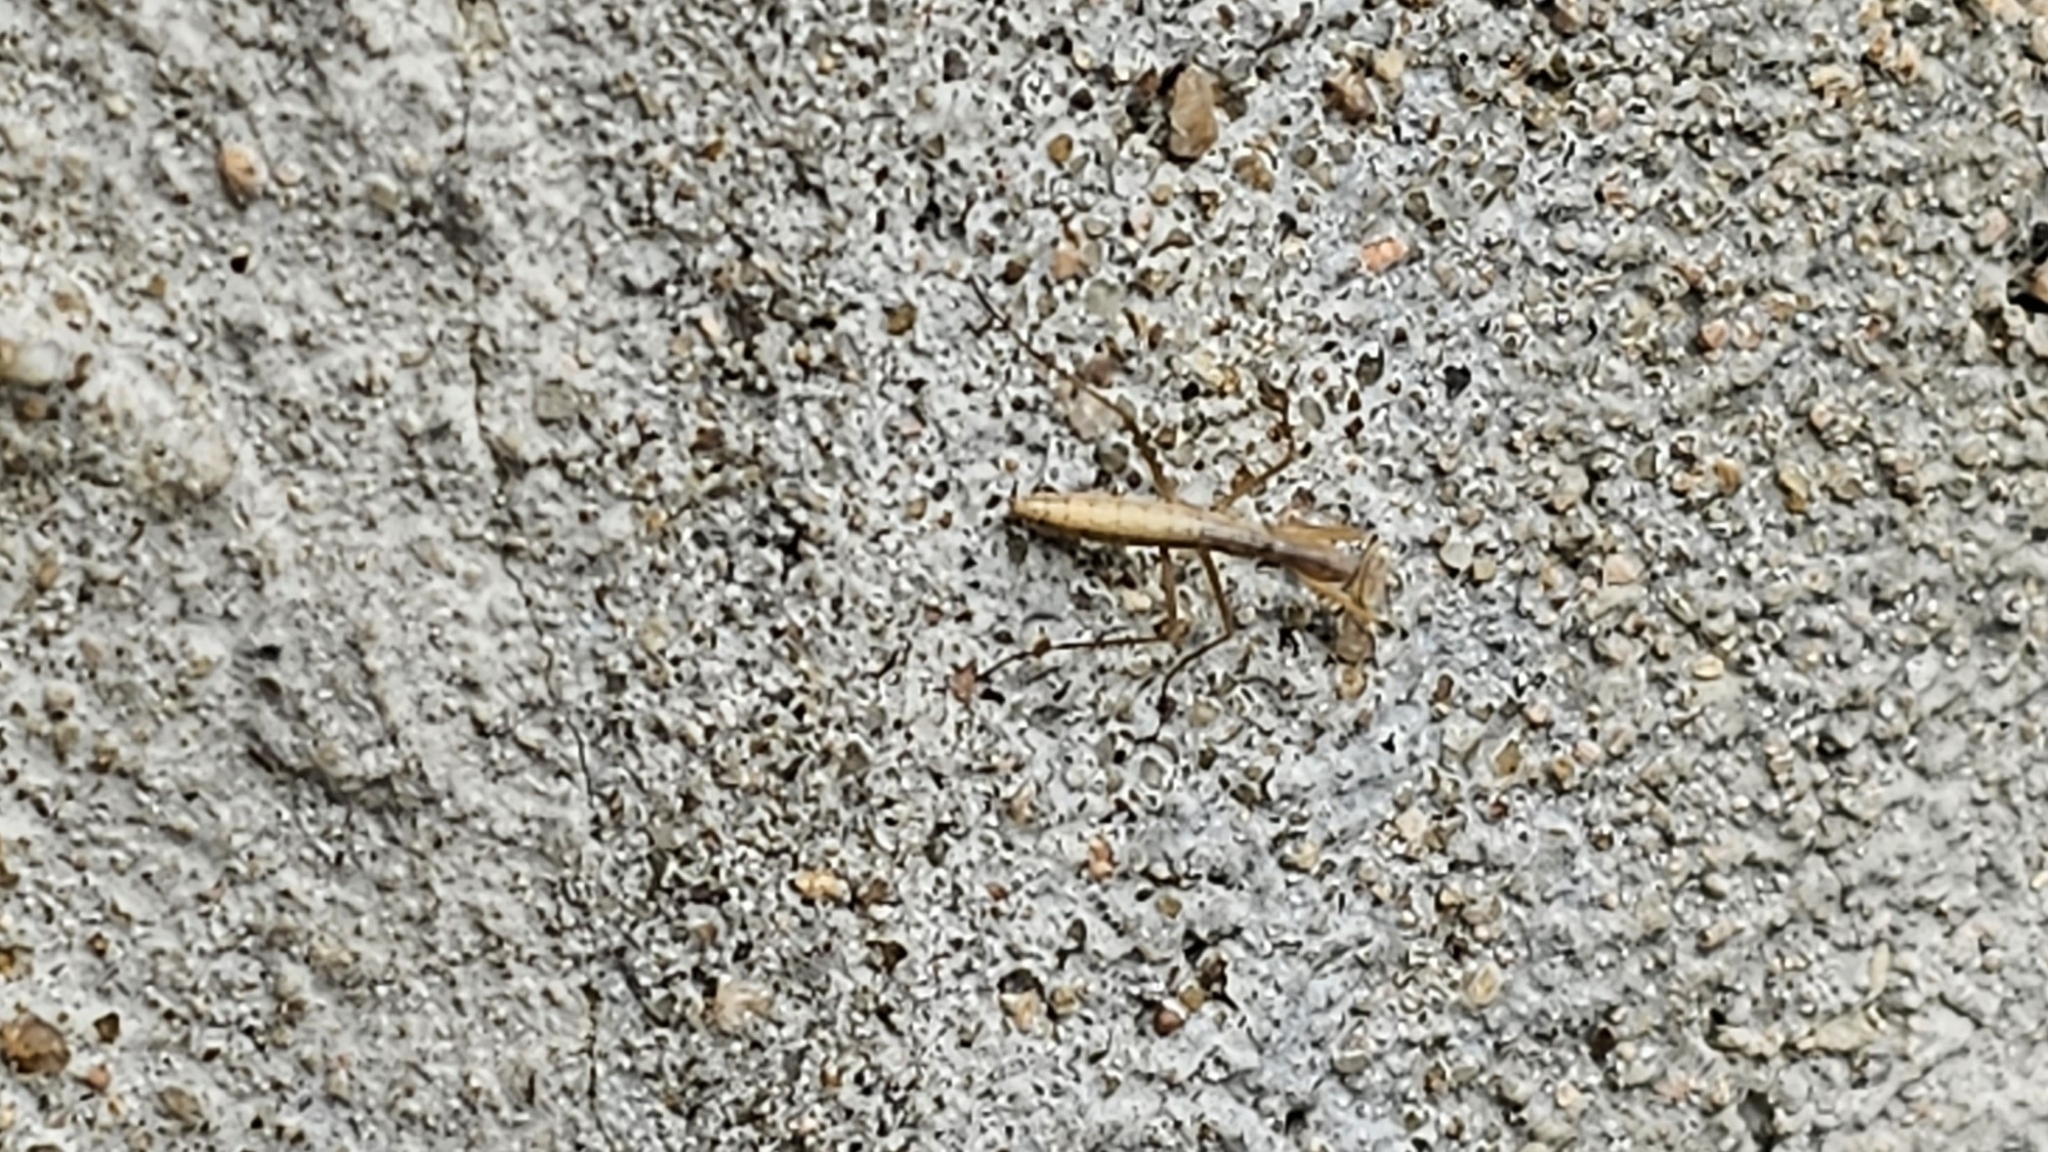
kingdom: Animalia
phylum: Arthropoda
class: Insecta
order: Mantodea
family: Mantidae
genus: Mantis
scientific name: Mantis religiosa
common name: Praying mantis
